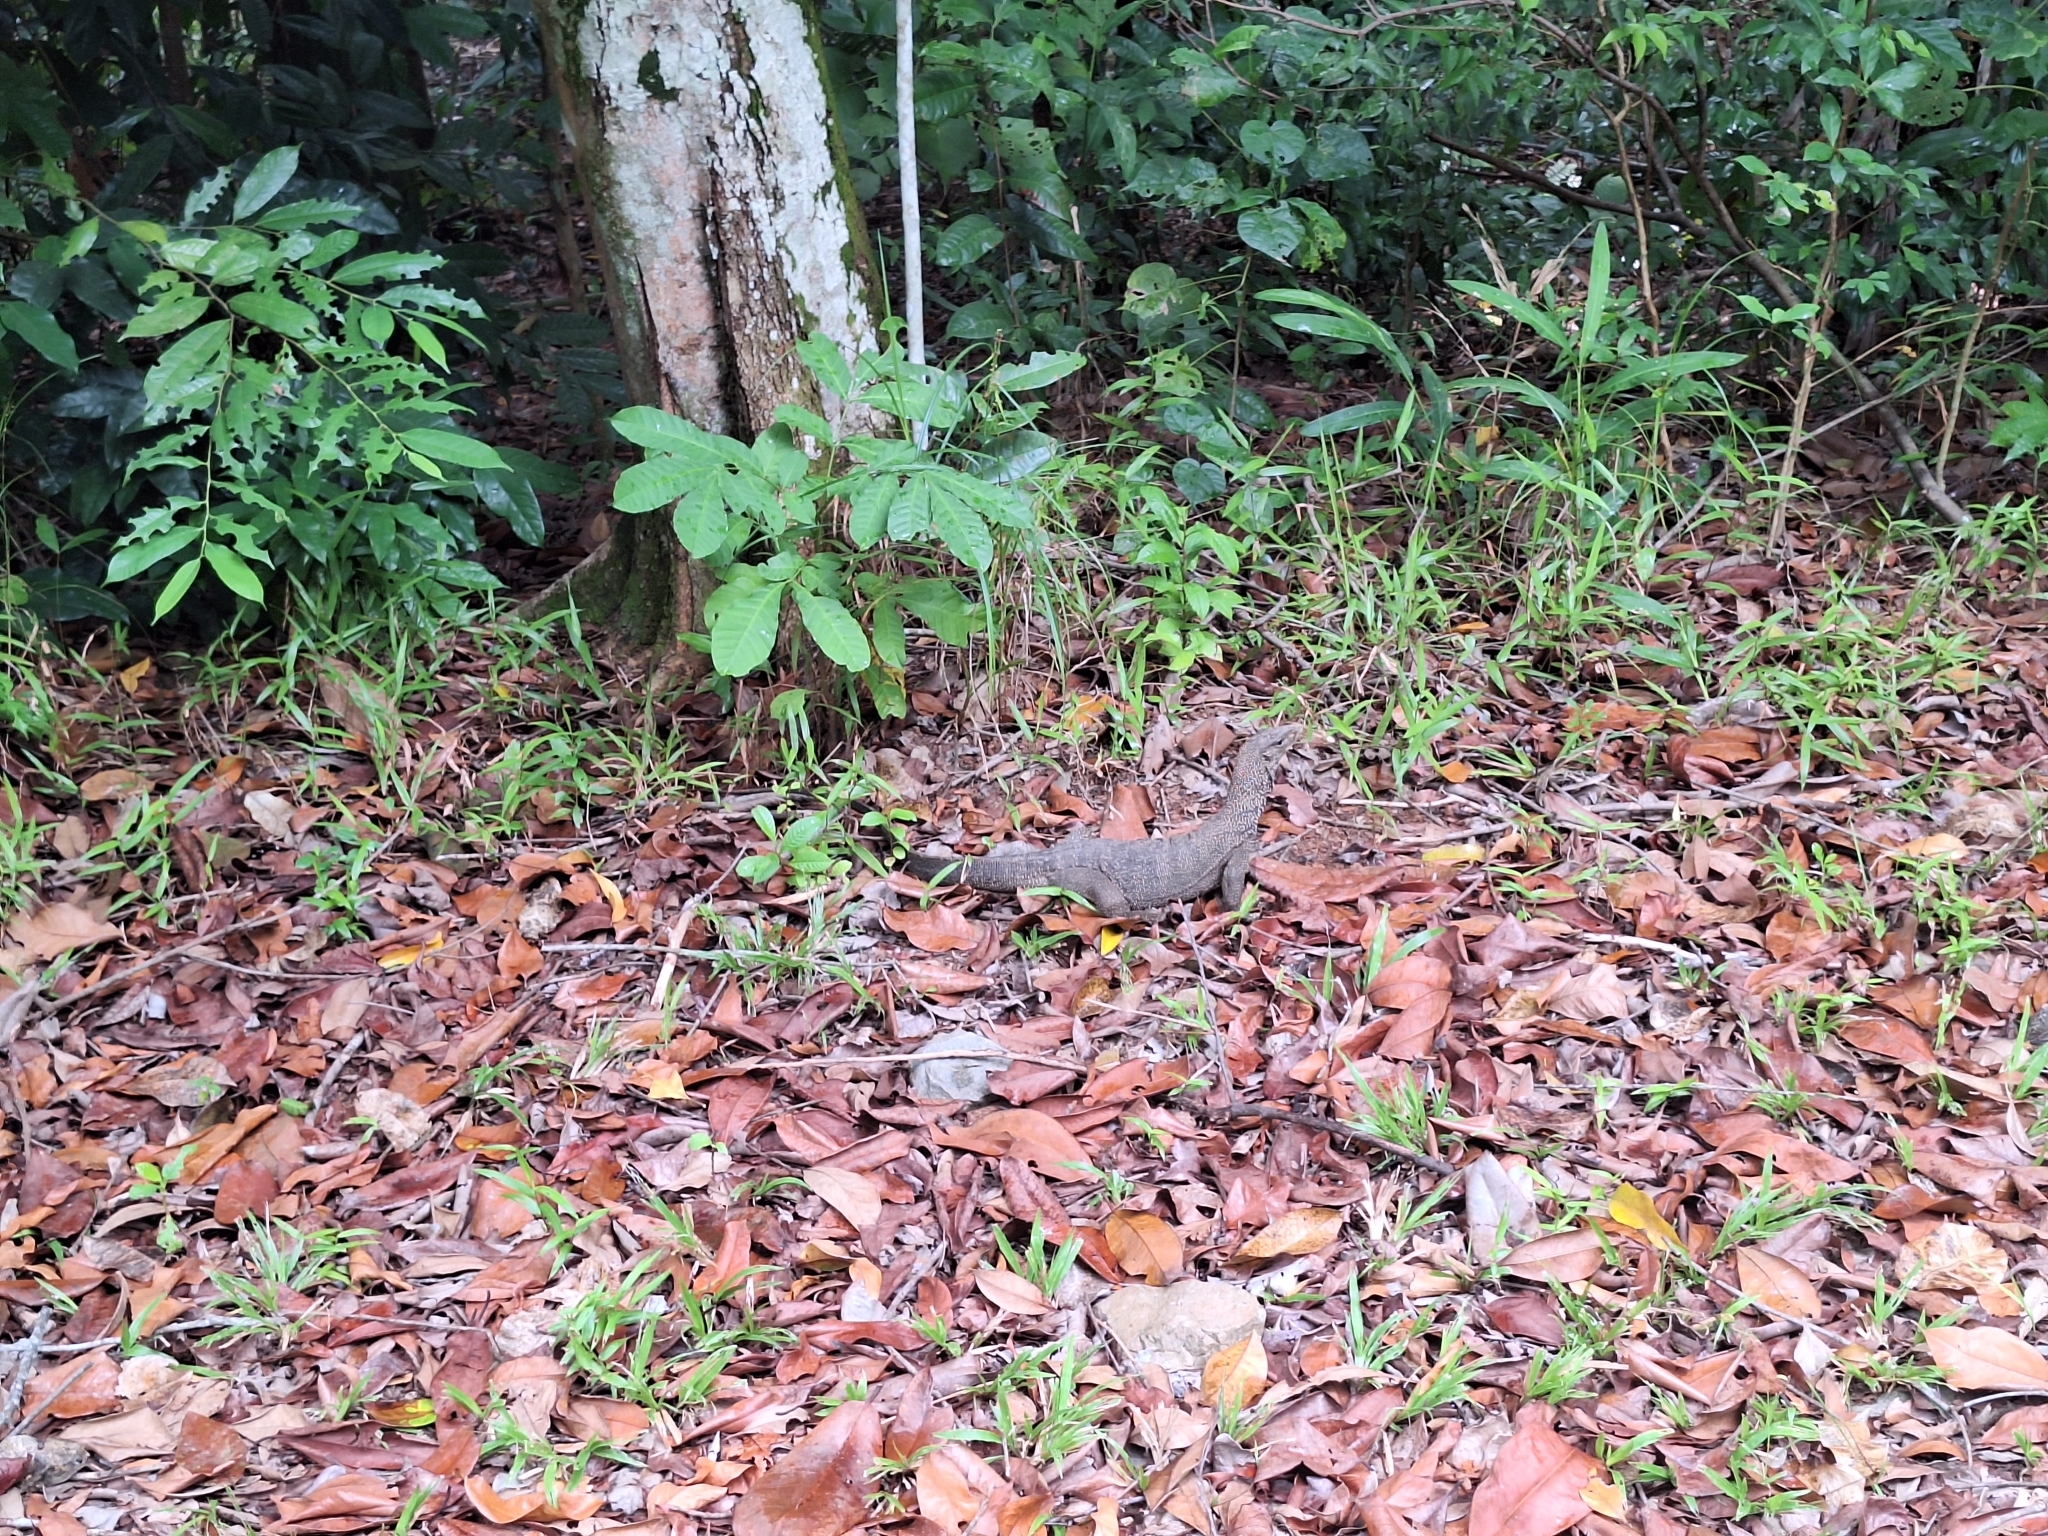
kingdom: Animalia
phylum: Chordata
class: Squamata
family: Varanidae
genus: Varanus
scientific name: Varanus nebulosus
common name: Clouded monitor
